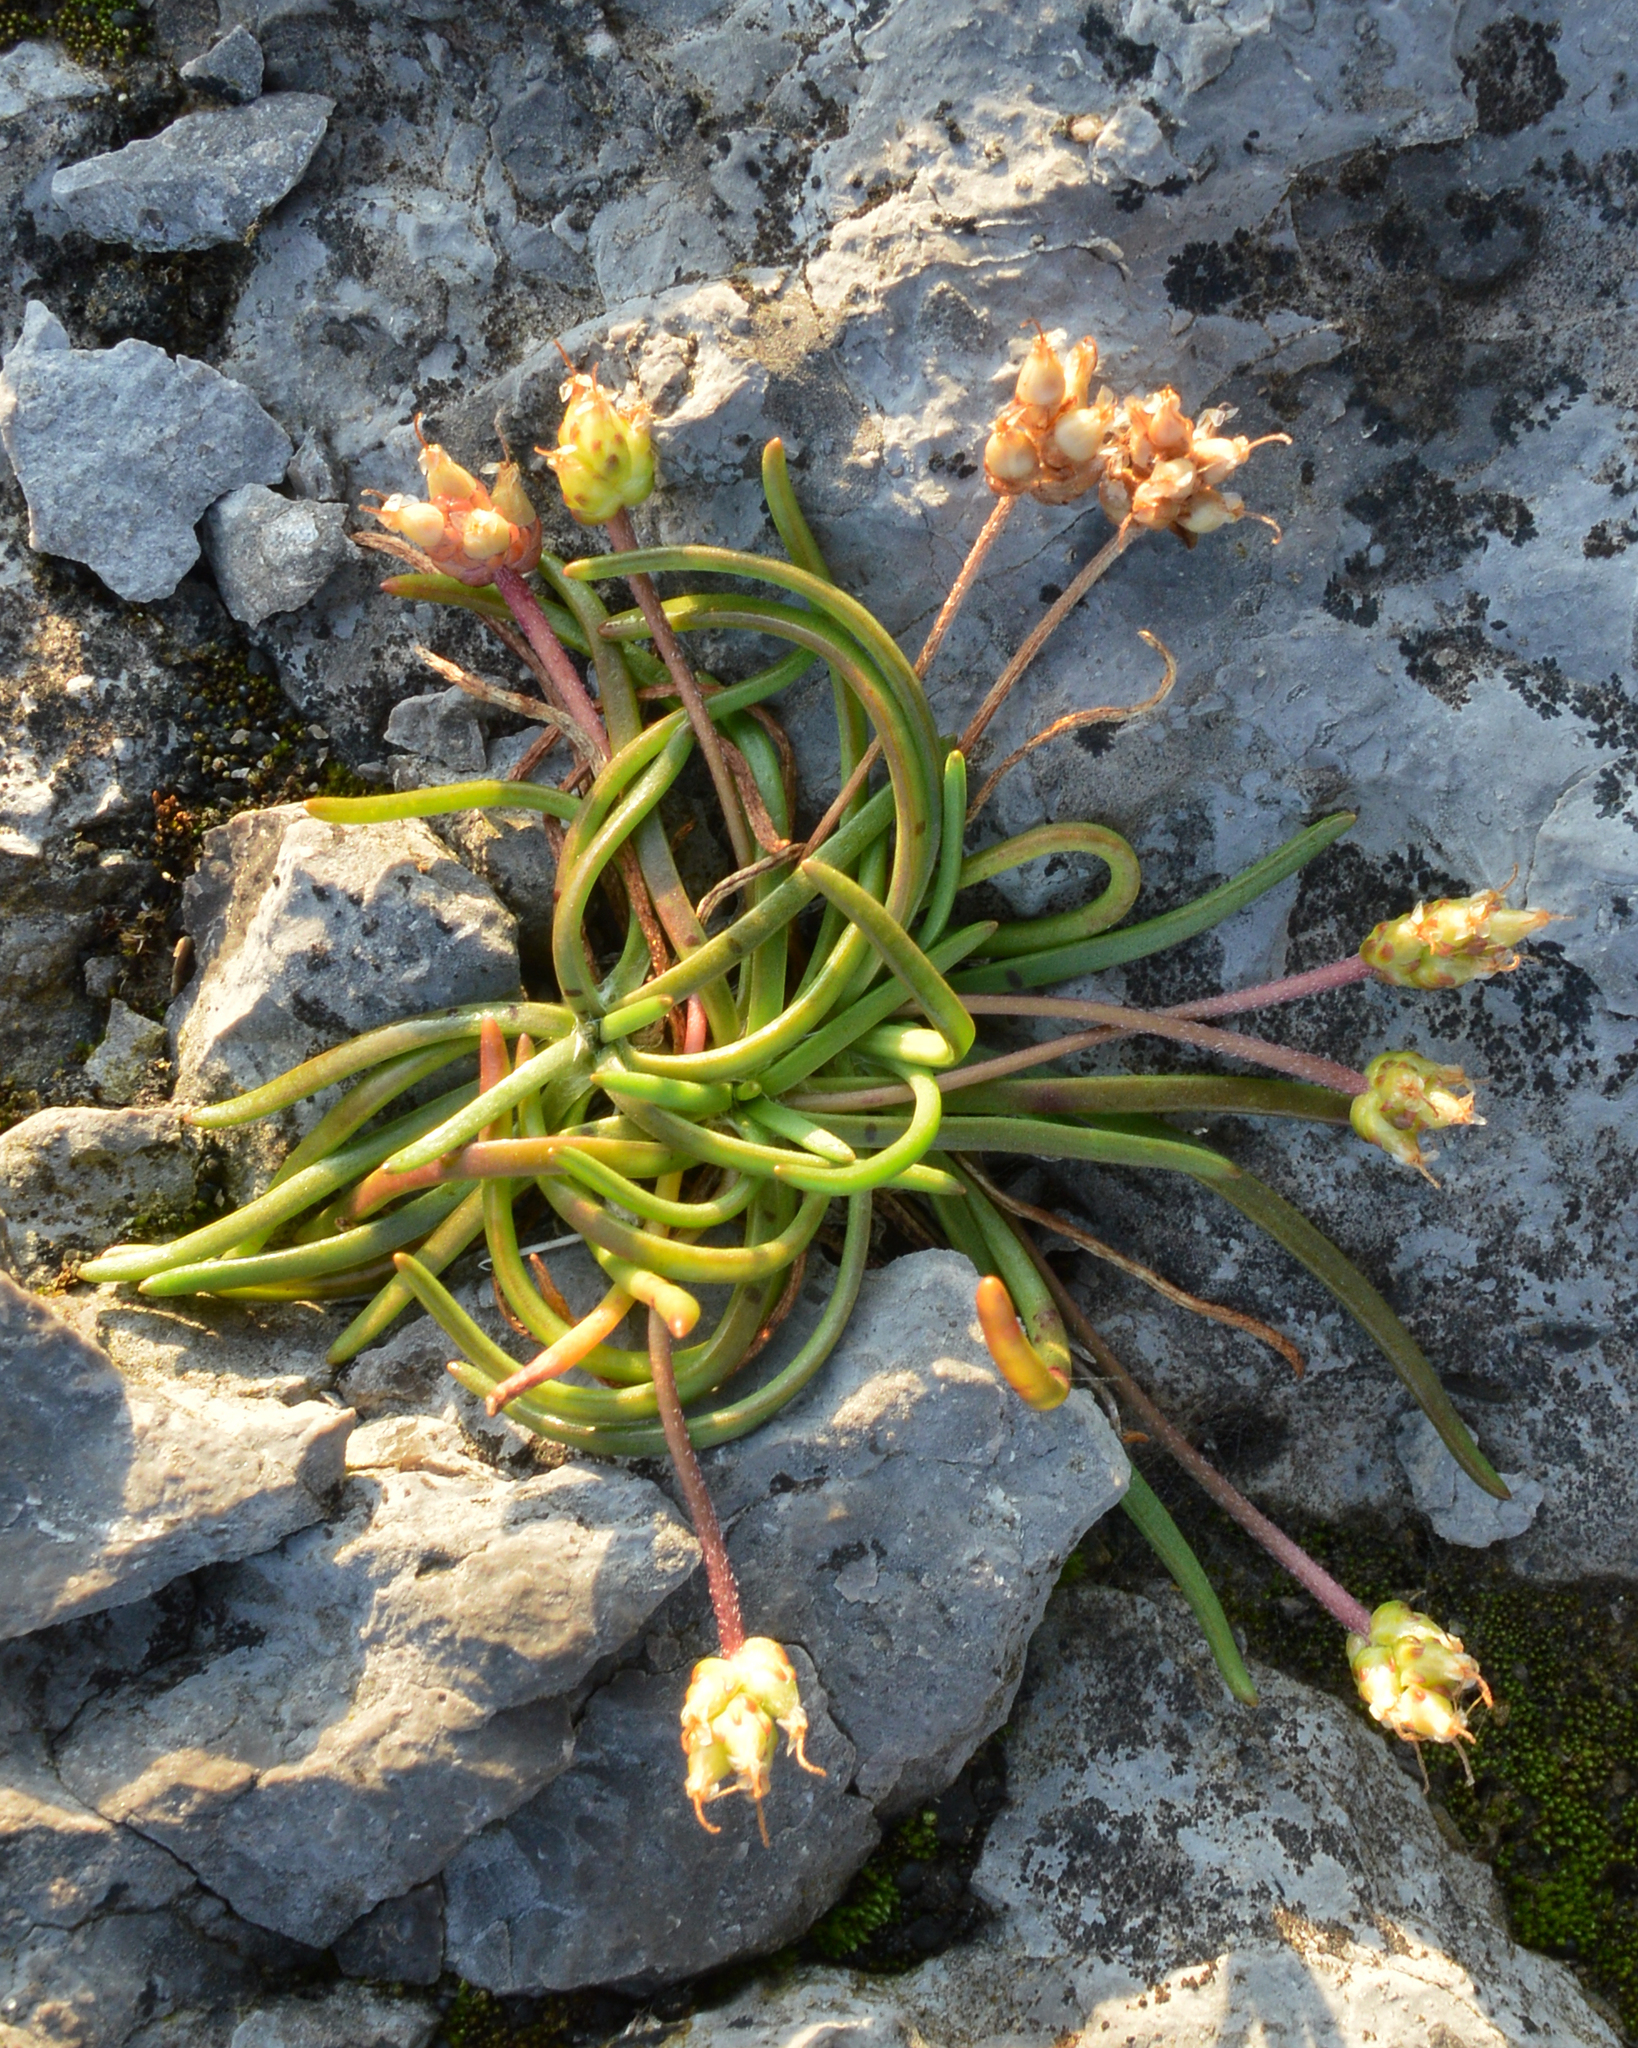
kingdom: Plantae
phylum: Tracheophyta
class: Magnoliopsida
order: Lamiales
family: Plantaginaceae
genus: Plantago
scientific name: Plantago maritima
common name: Sea plantain
